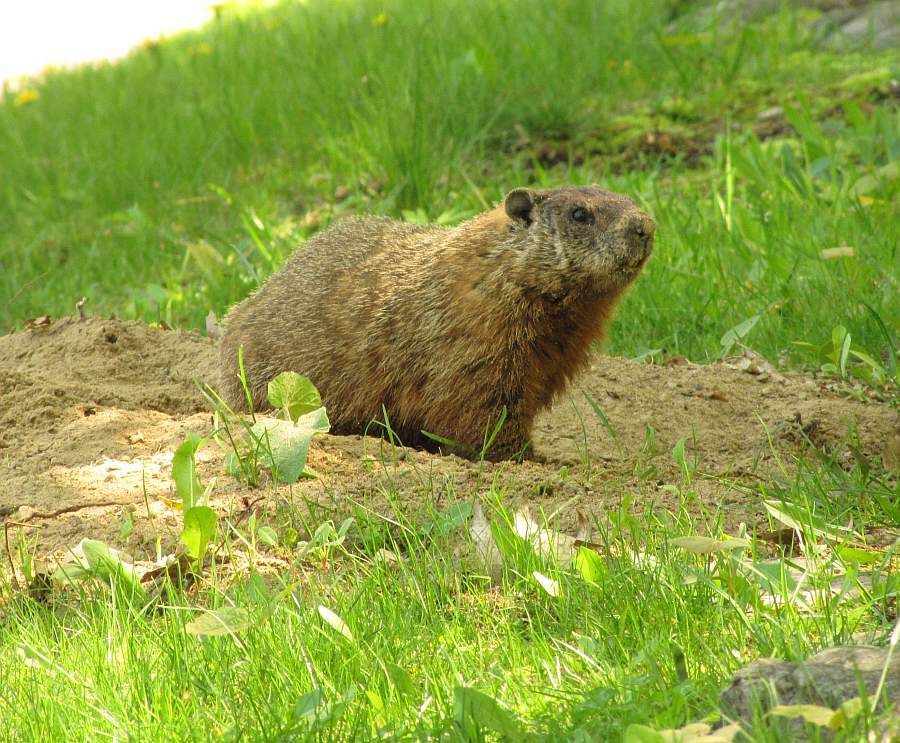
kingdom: Animalia
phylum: Chordata
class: Mammalia
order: Rodentia
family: Sciuridae
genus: Marmota
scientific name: Marmota monax
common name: Groundhog
